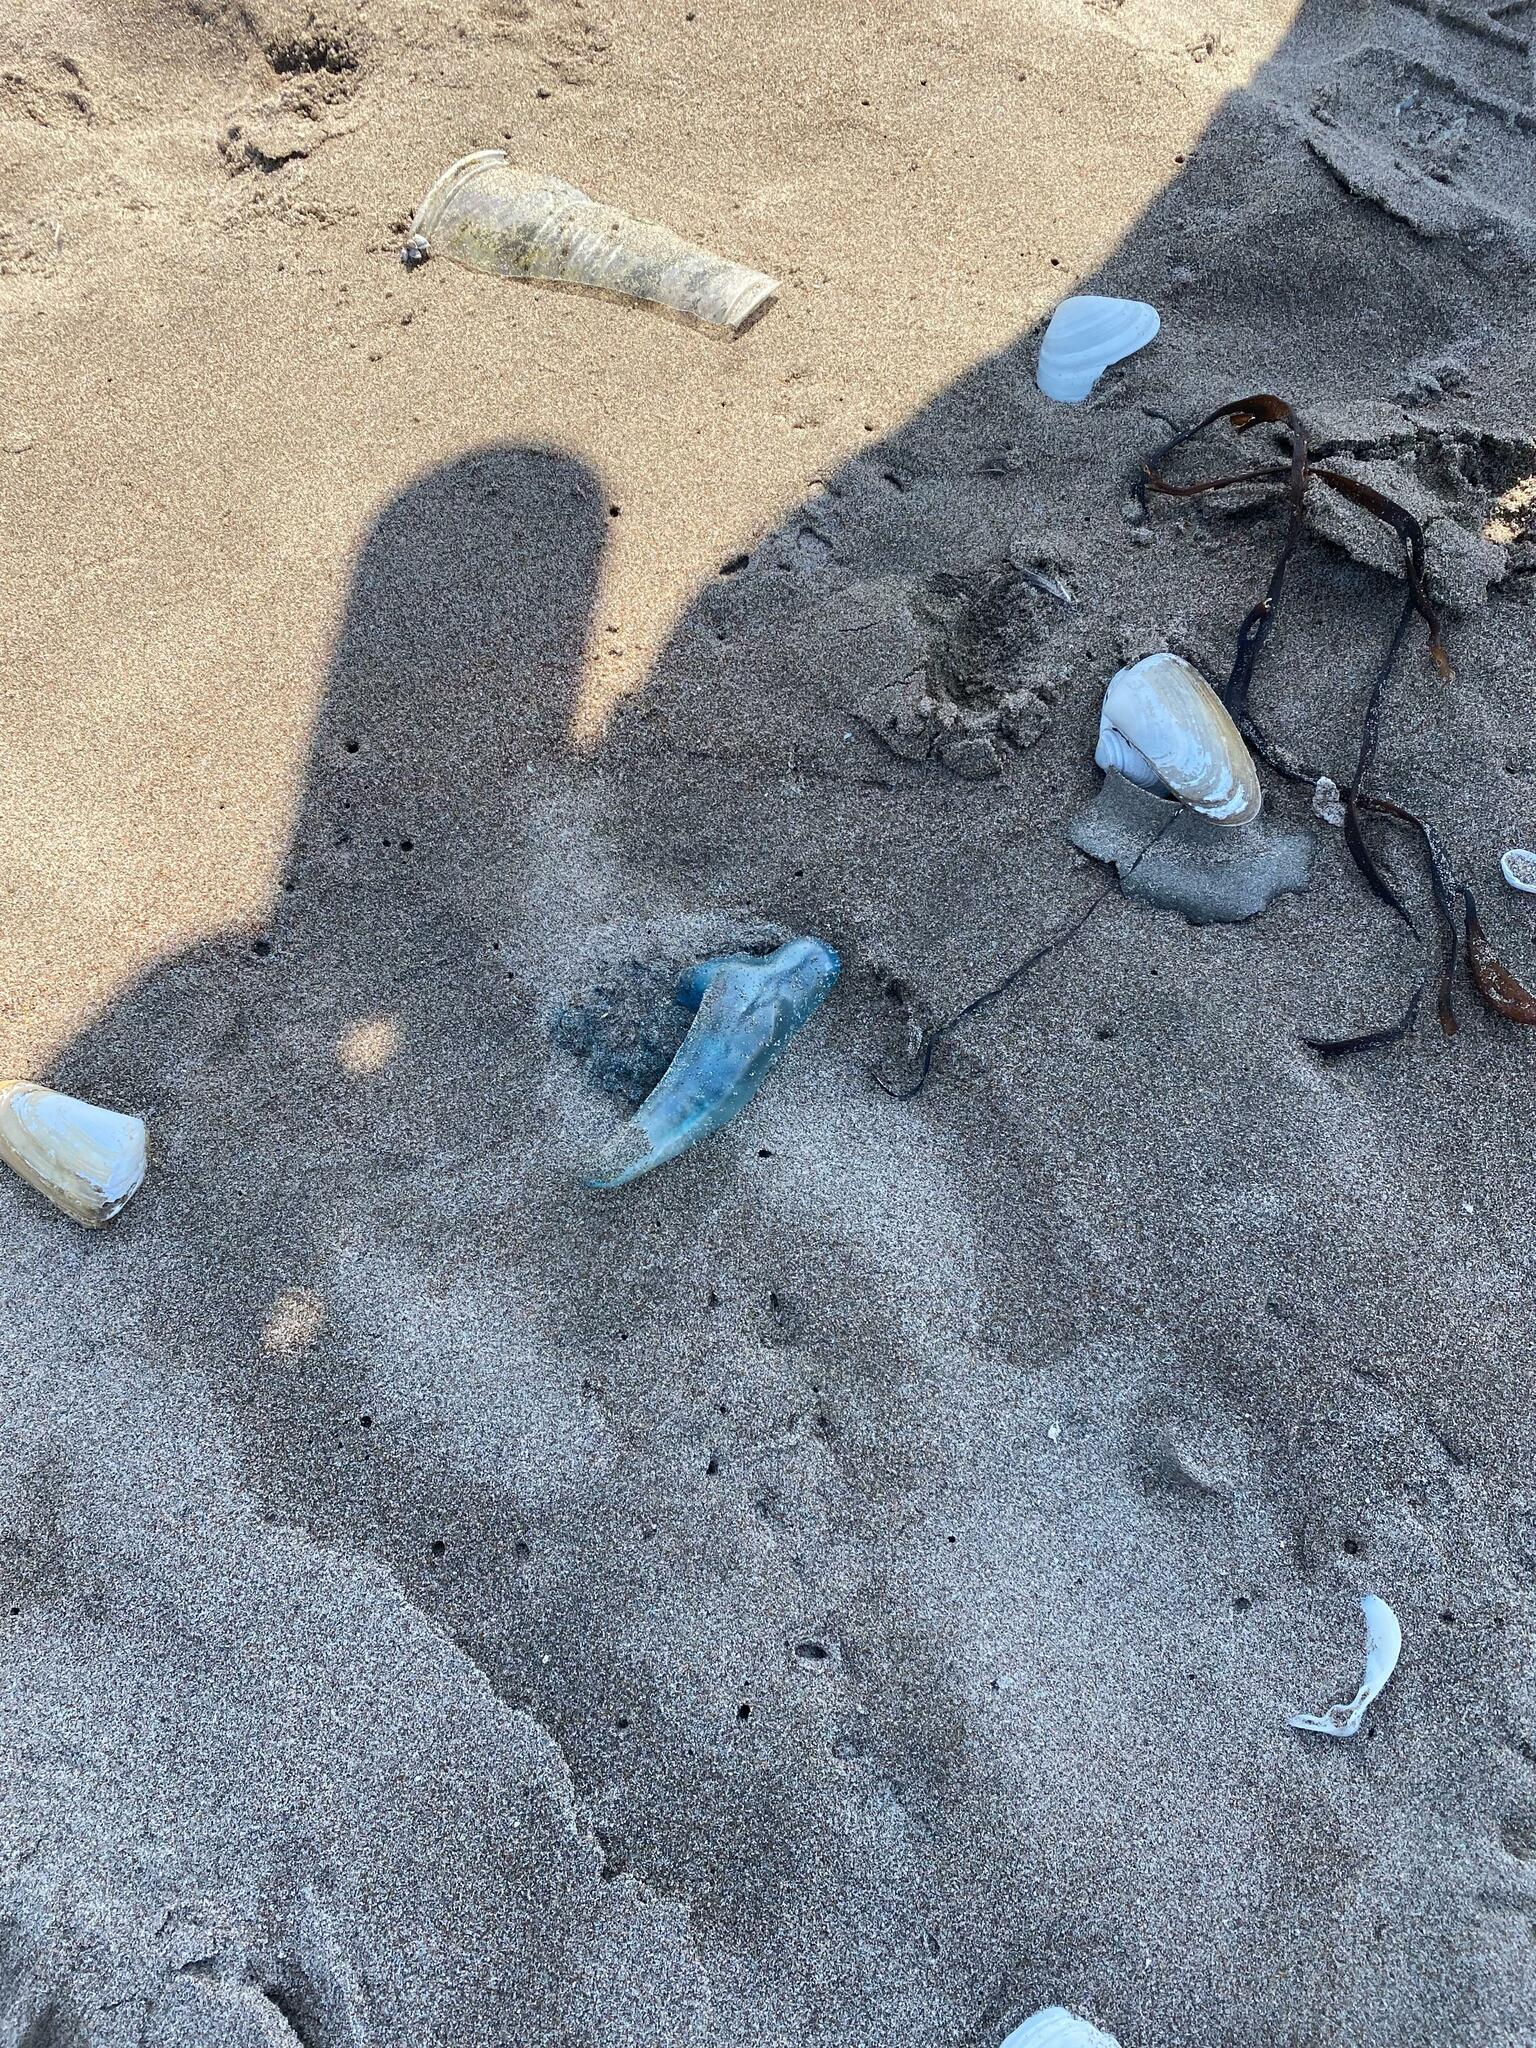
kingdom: Animalia
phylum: Cnidaria
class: Hydrozoa
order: Siphonophorae
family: Physaliidae
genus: Physalia
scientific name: Physalia physalis
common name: Portuguese man-of-war
